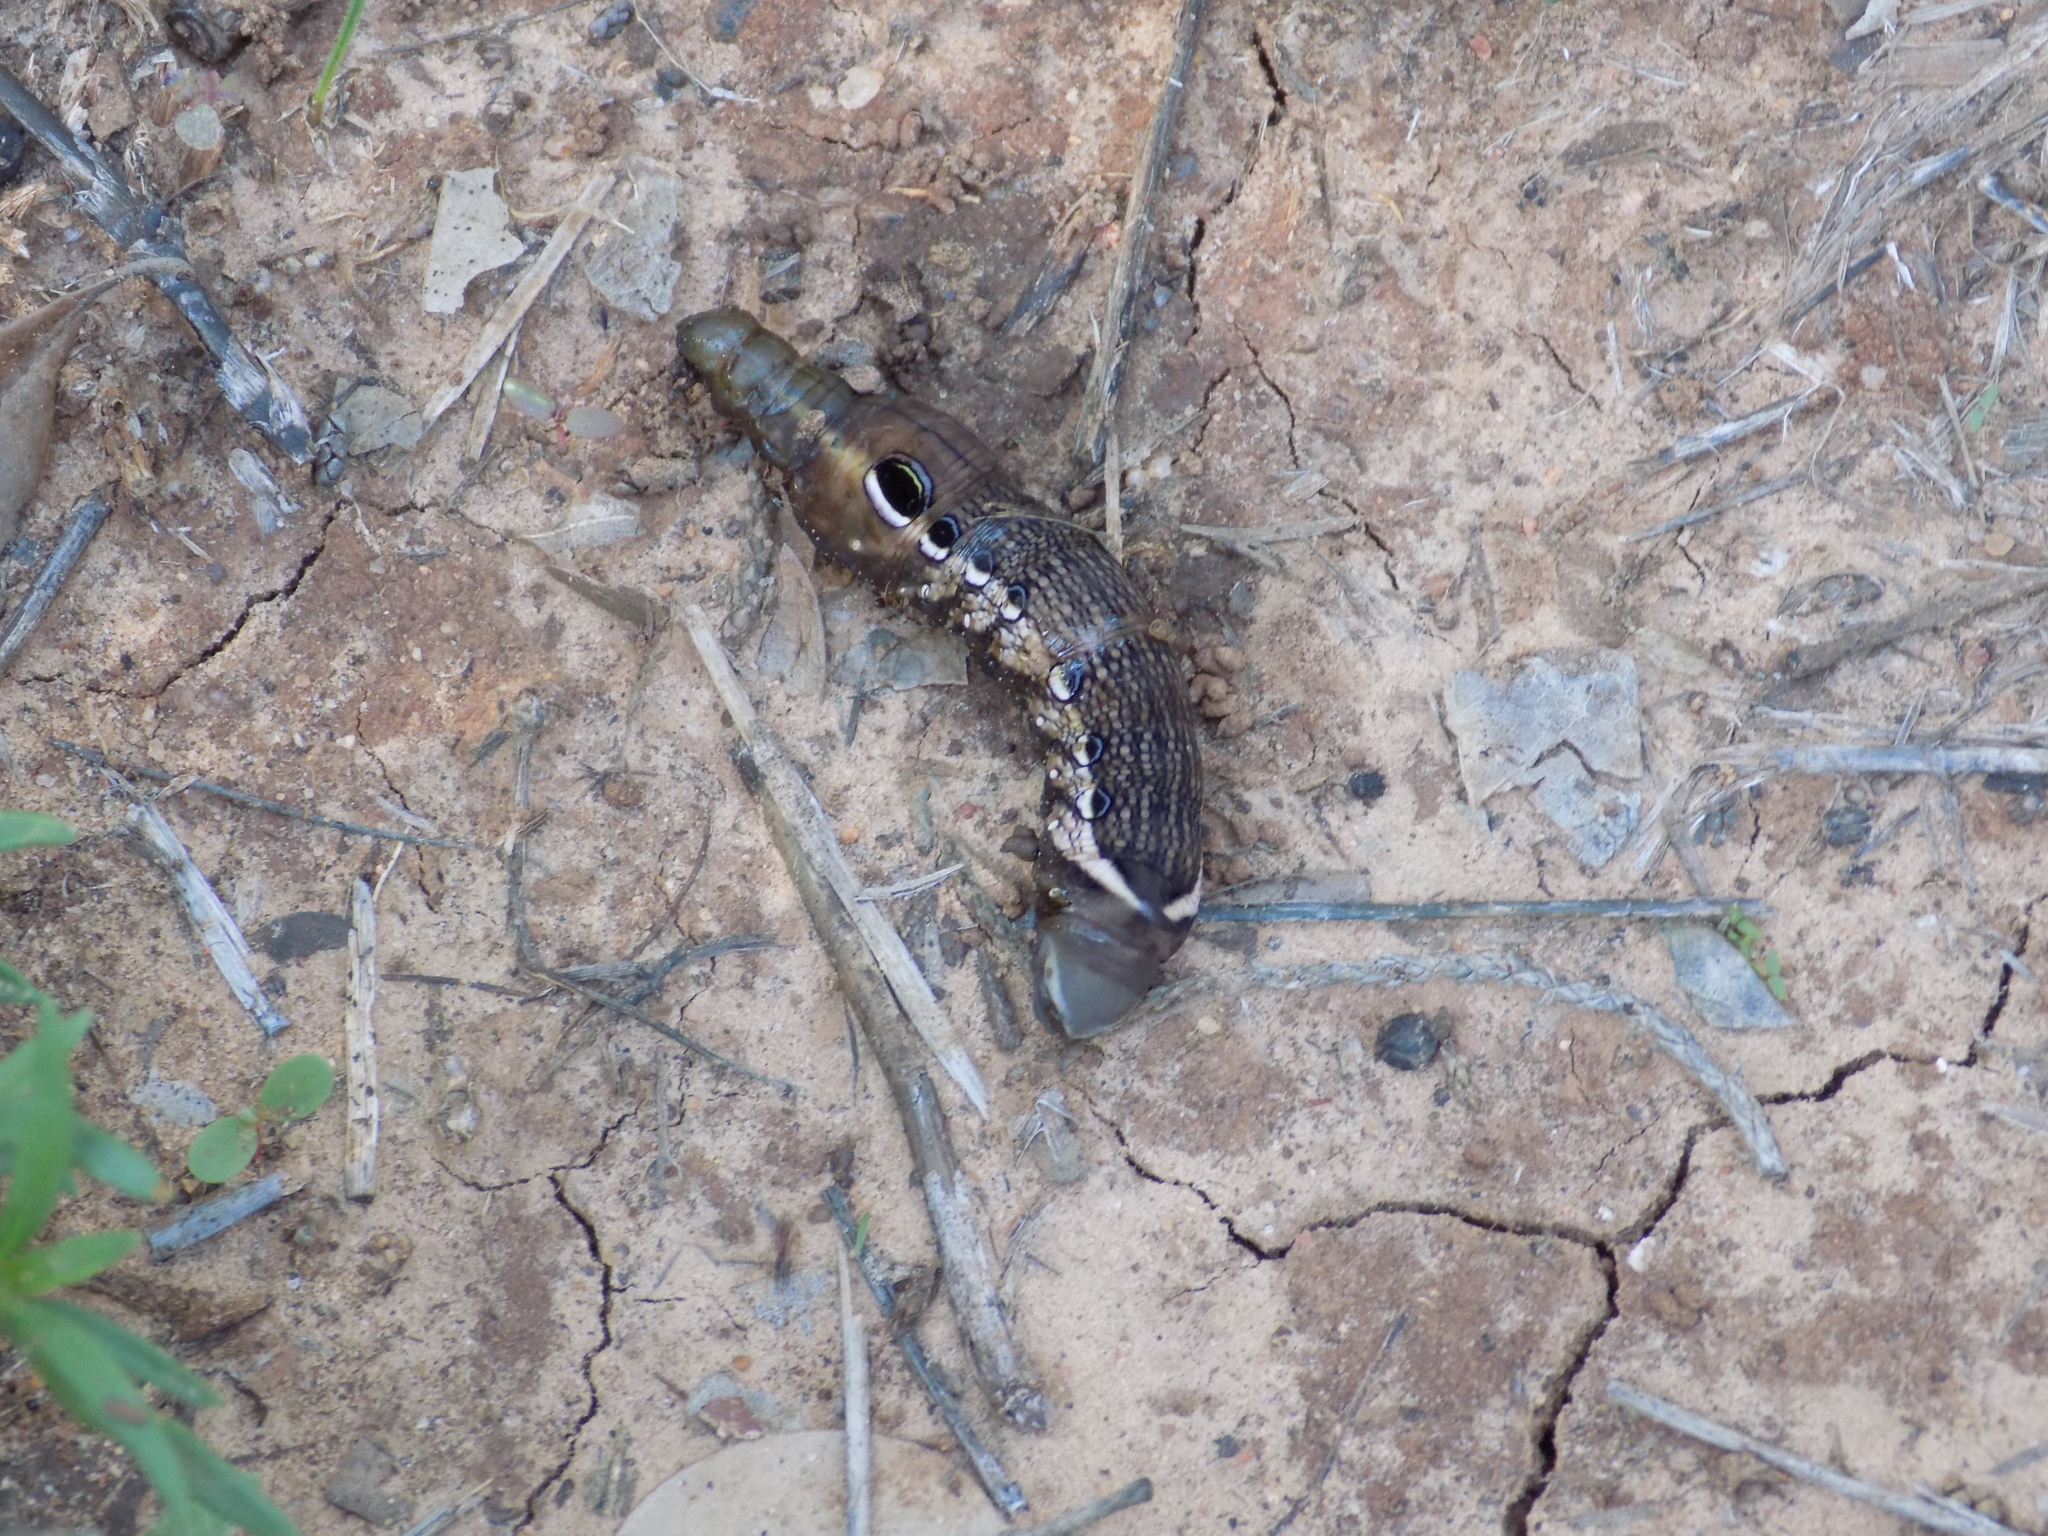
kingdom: Animalia
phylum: Arthropoda
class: Insecta
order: Lepidoptera
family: Sphingidae
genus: Xylophanes
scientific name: Xylophanes tersa
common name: Tersa sphinx
